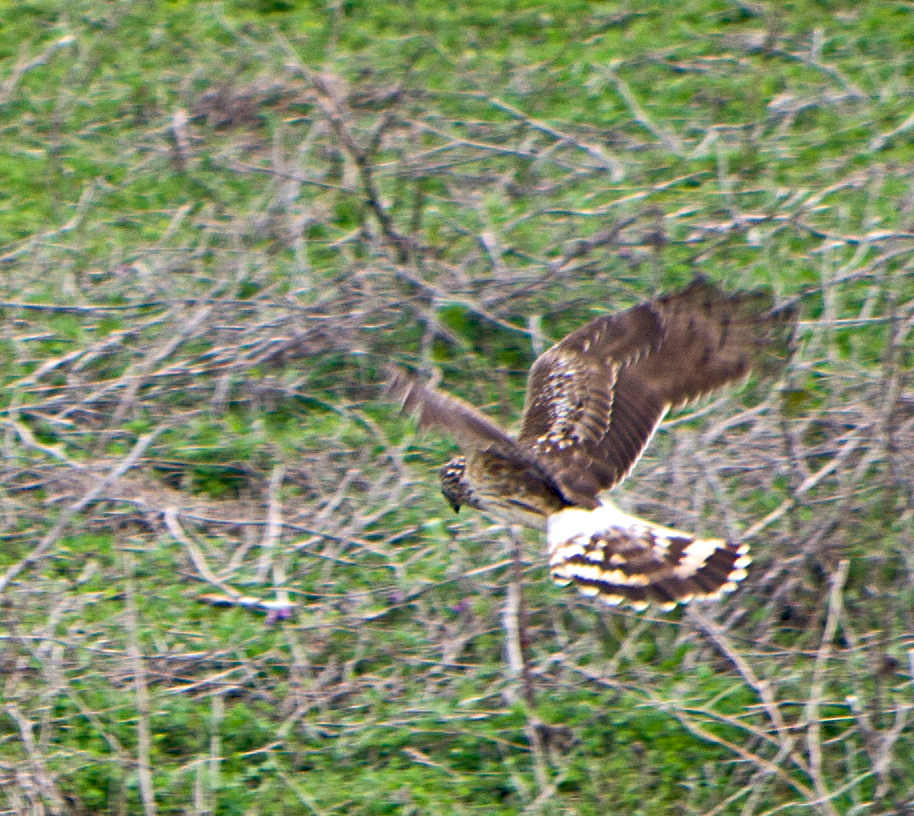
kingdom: Animalia
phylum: Chordata
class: Aves
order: Accipitriformes
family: Accipitridae
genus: Circus
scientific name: Circus cyaneus
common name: Hen harrier
